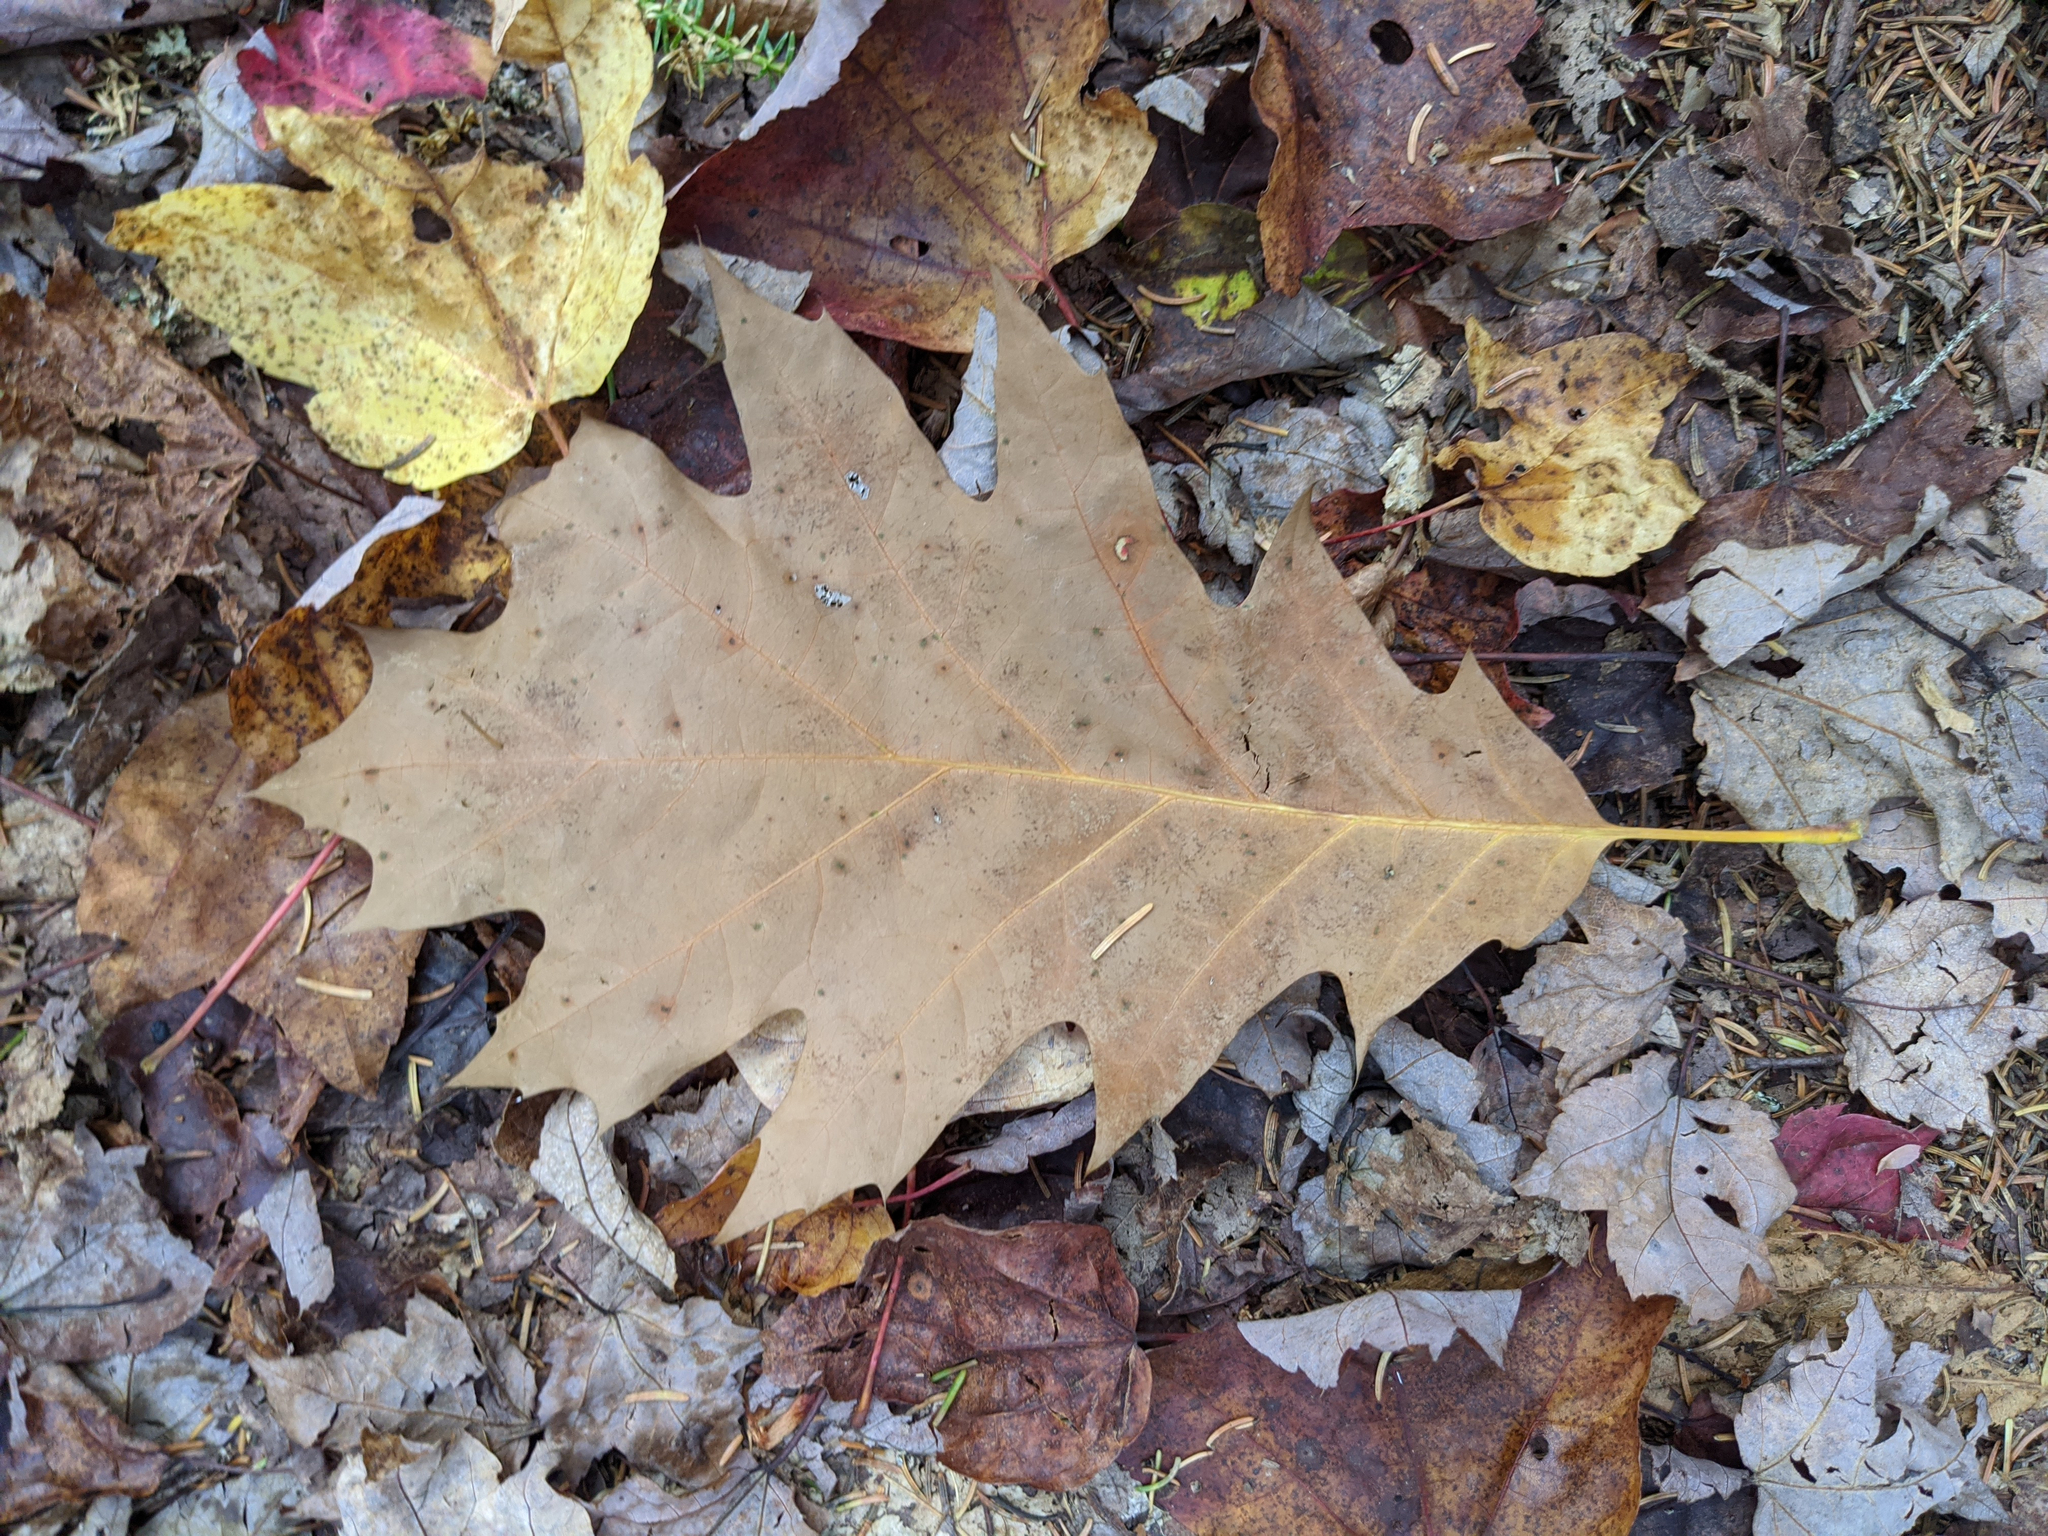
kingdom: Plantae
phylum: Tracheophyta
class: Magnoliopsida
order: Fagales
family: Fagaceae
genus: Quercus
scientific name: Quercus rubra
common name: Red oak
